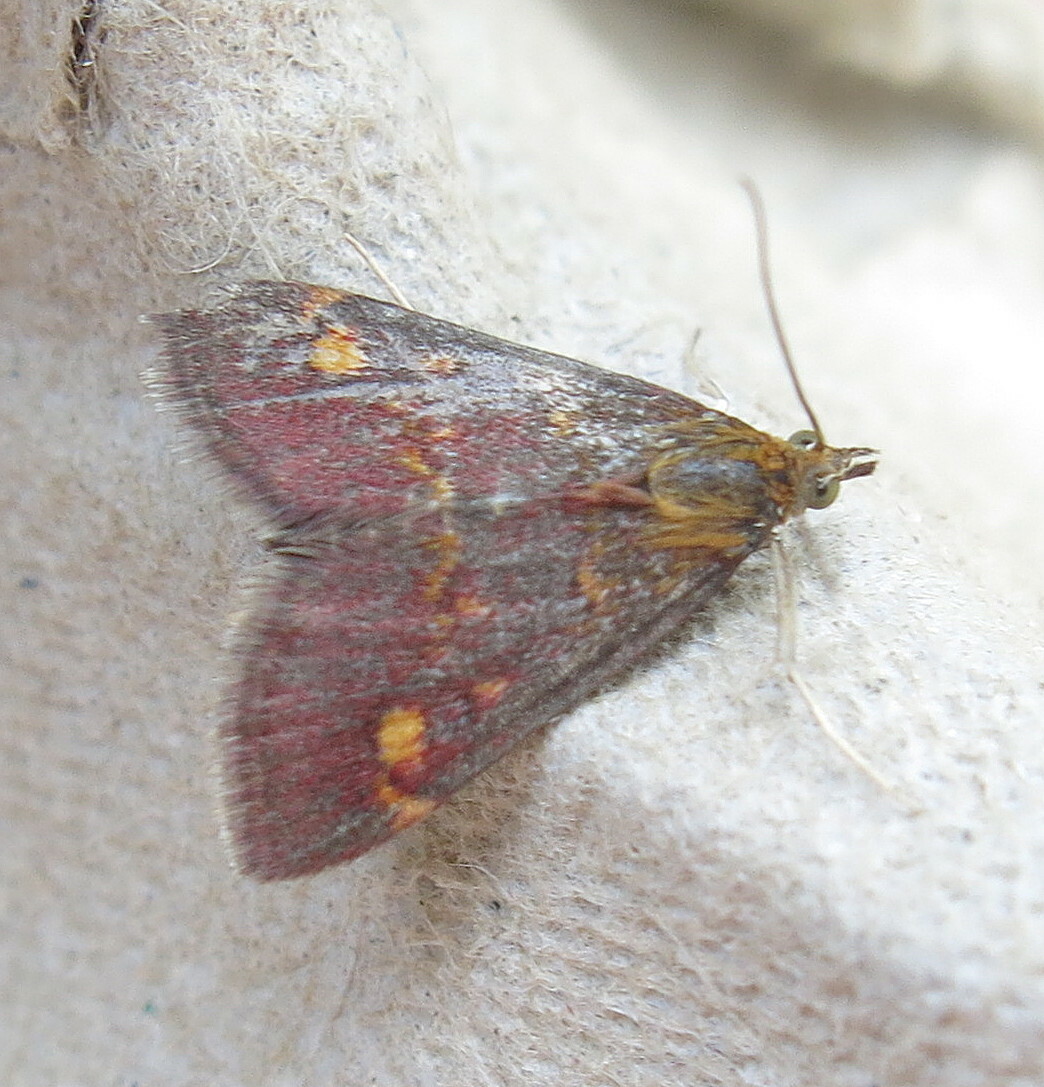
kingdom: Animalia
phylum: Arthropoda
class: Insecta
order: Lepidoptera
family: Crambidae
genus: Pyrausta
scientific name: Pyrausta aurata
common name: Small purple & gold
